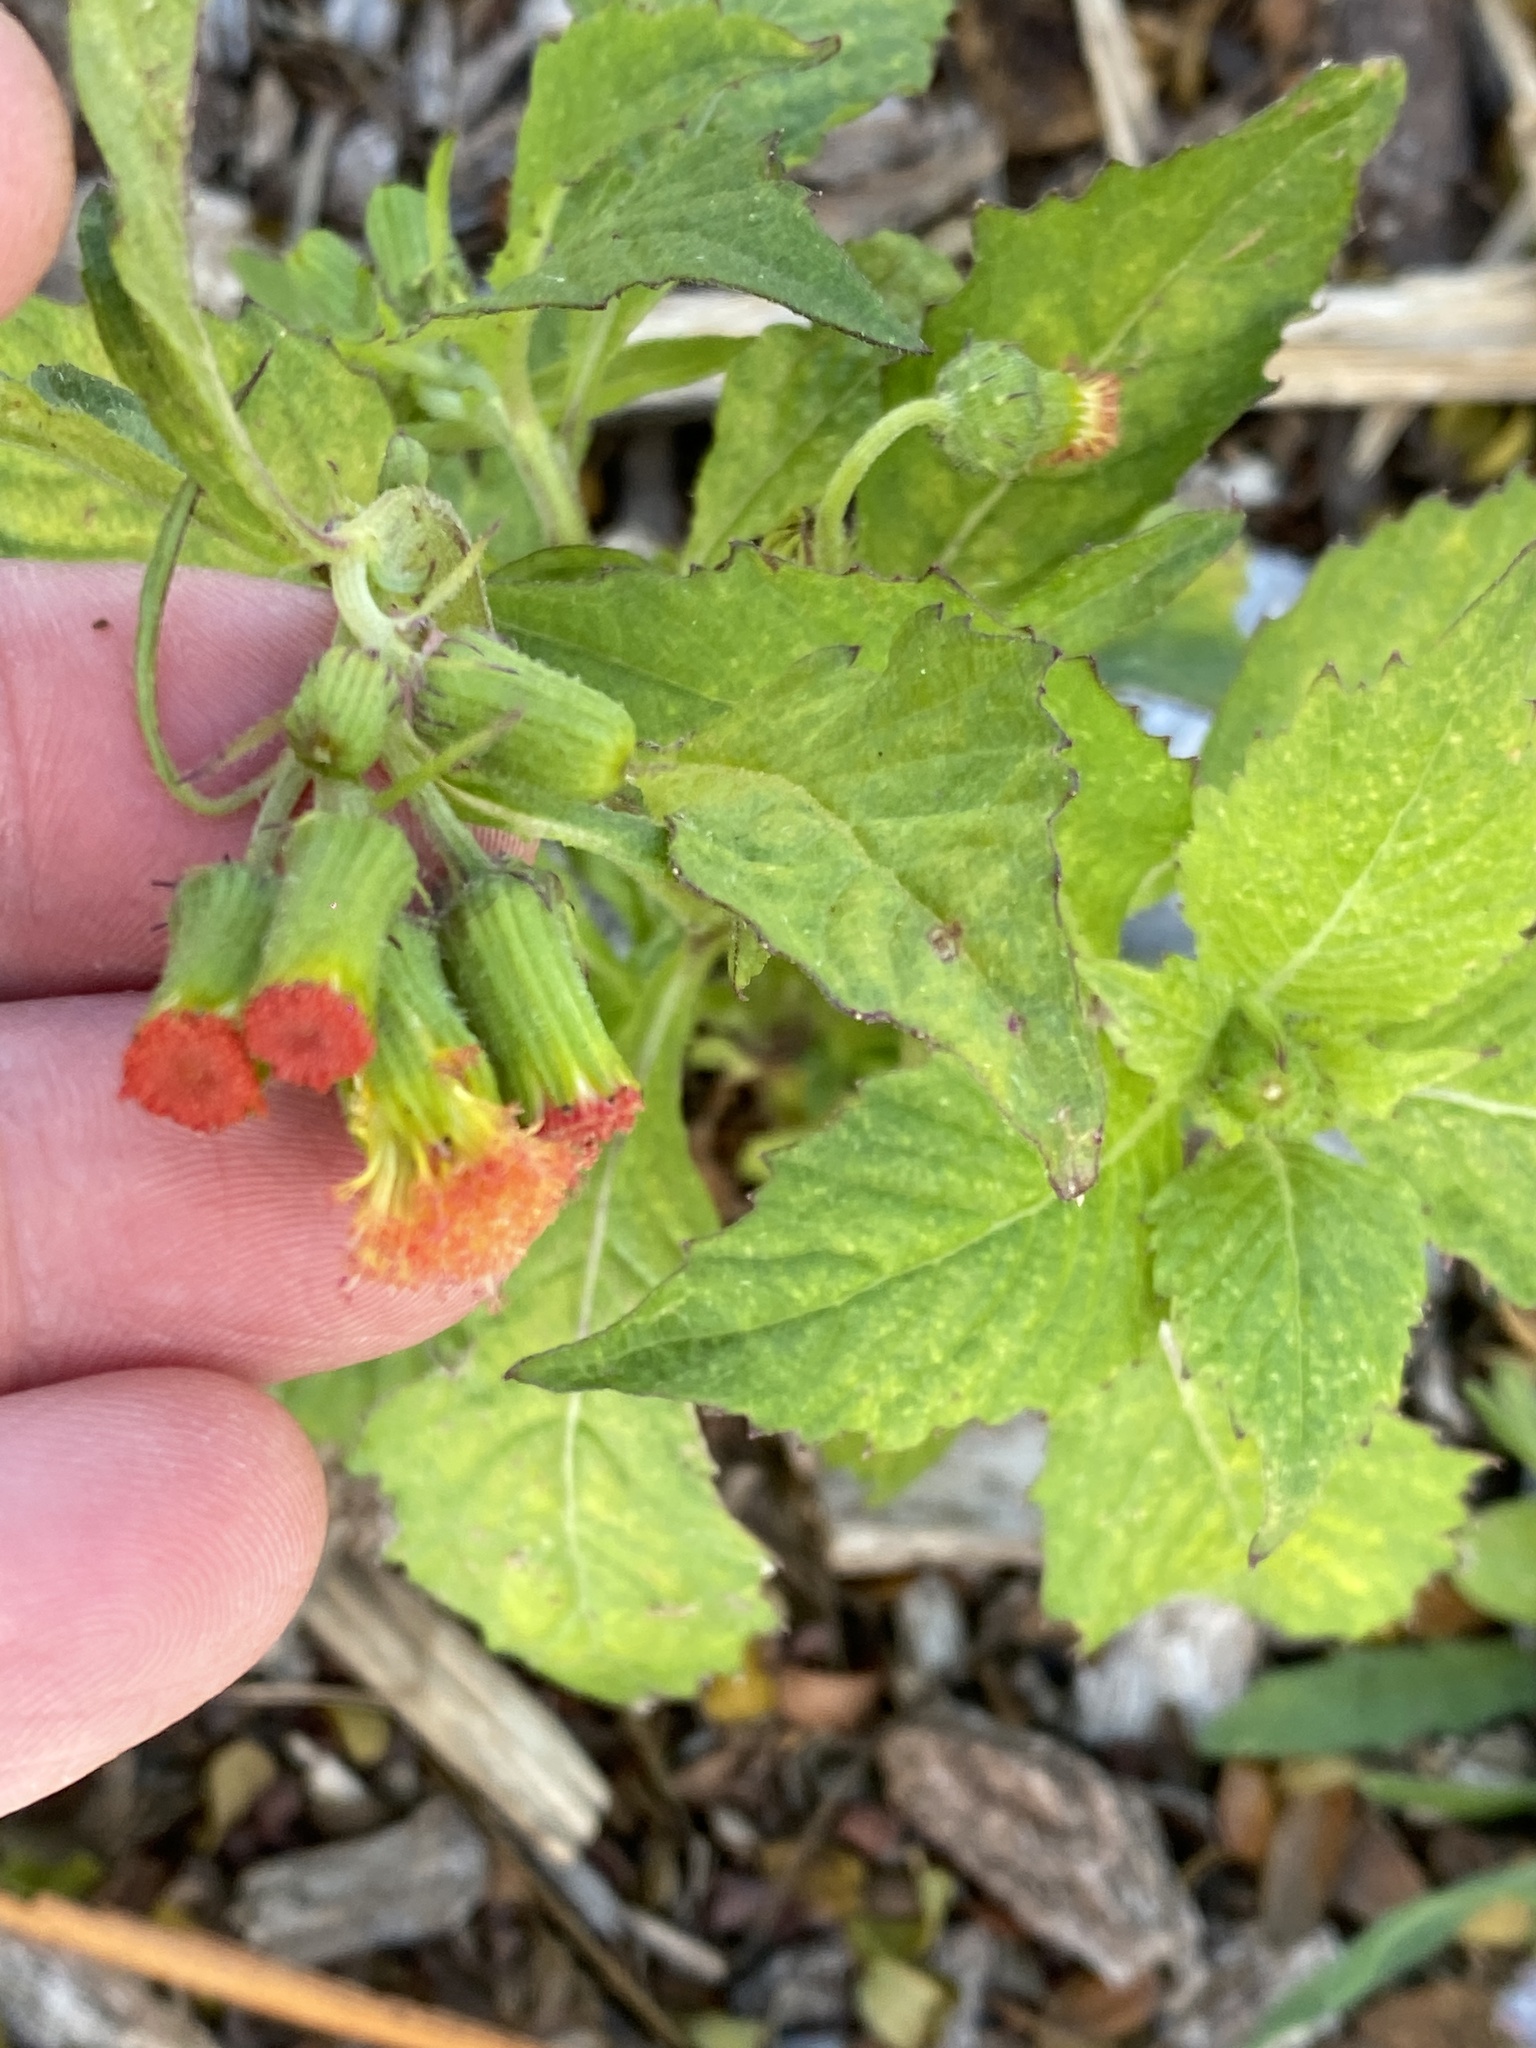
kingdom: Plantae
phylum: Tracheophyta
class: Magnoliopsida
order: Asterales
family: Asteraceae
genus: Crassocephalum
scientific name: Crassocephalum crepidioides
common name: Redflower ragleaf
